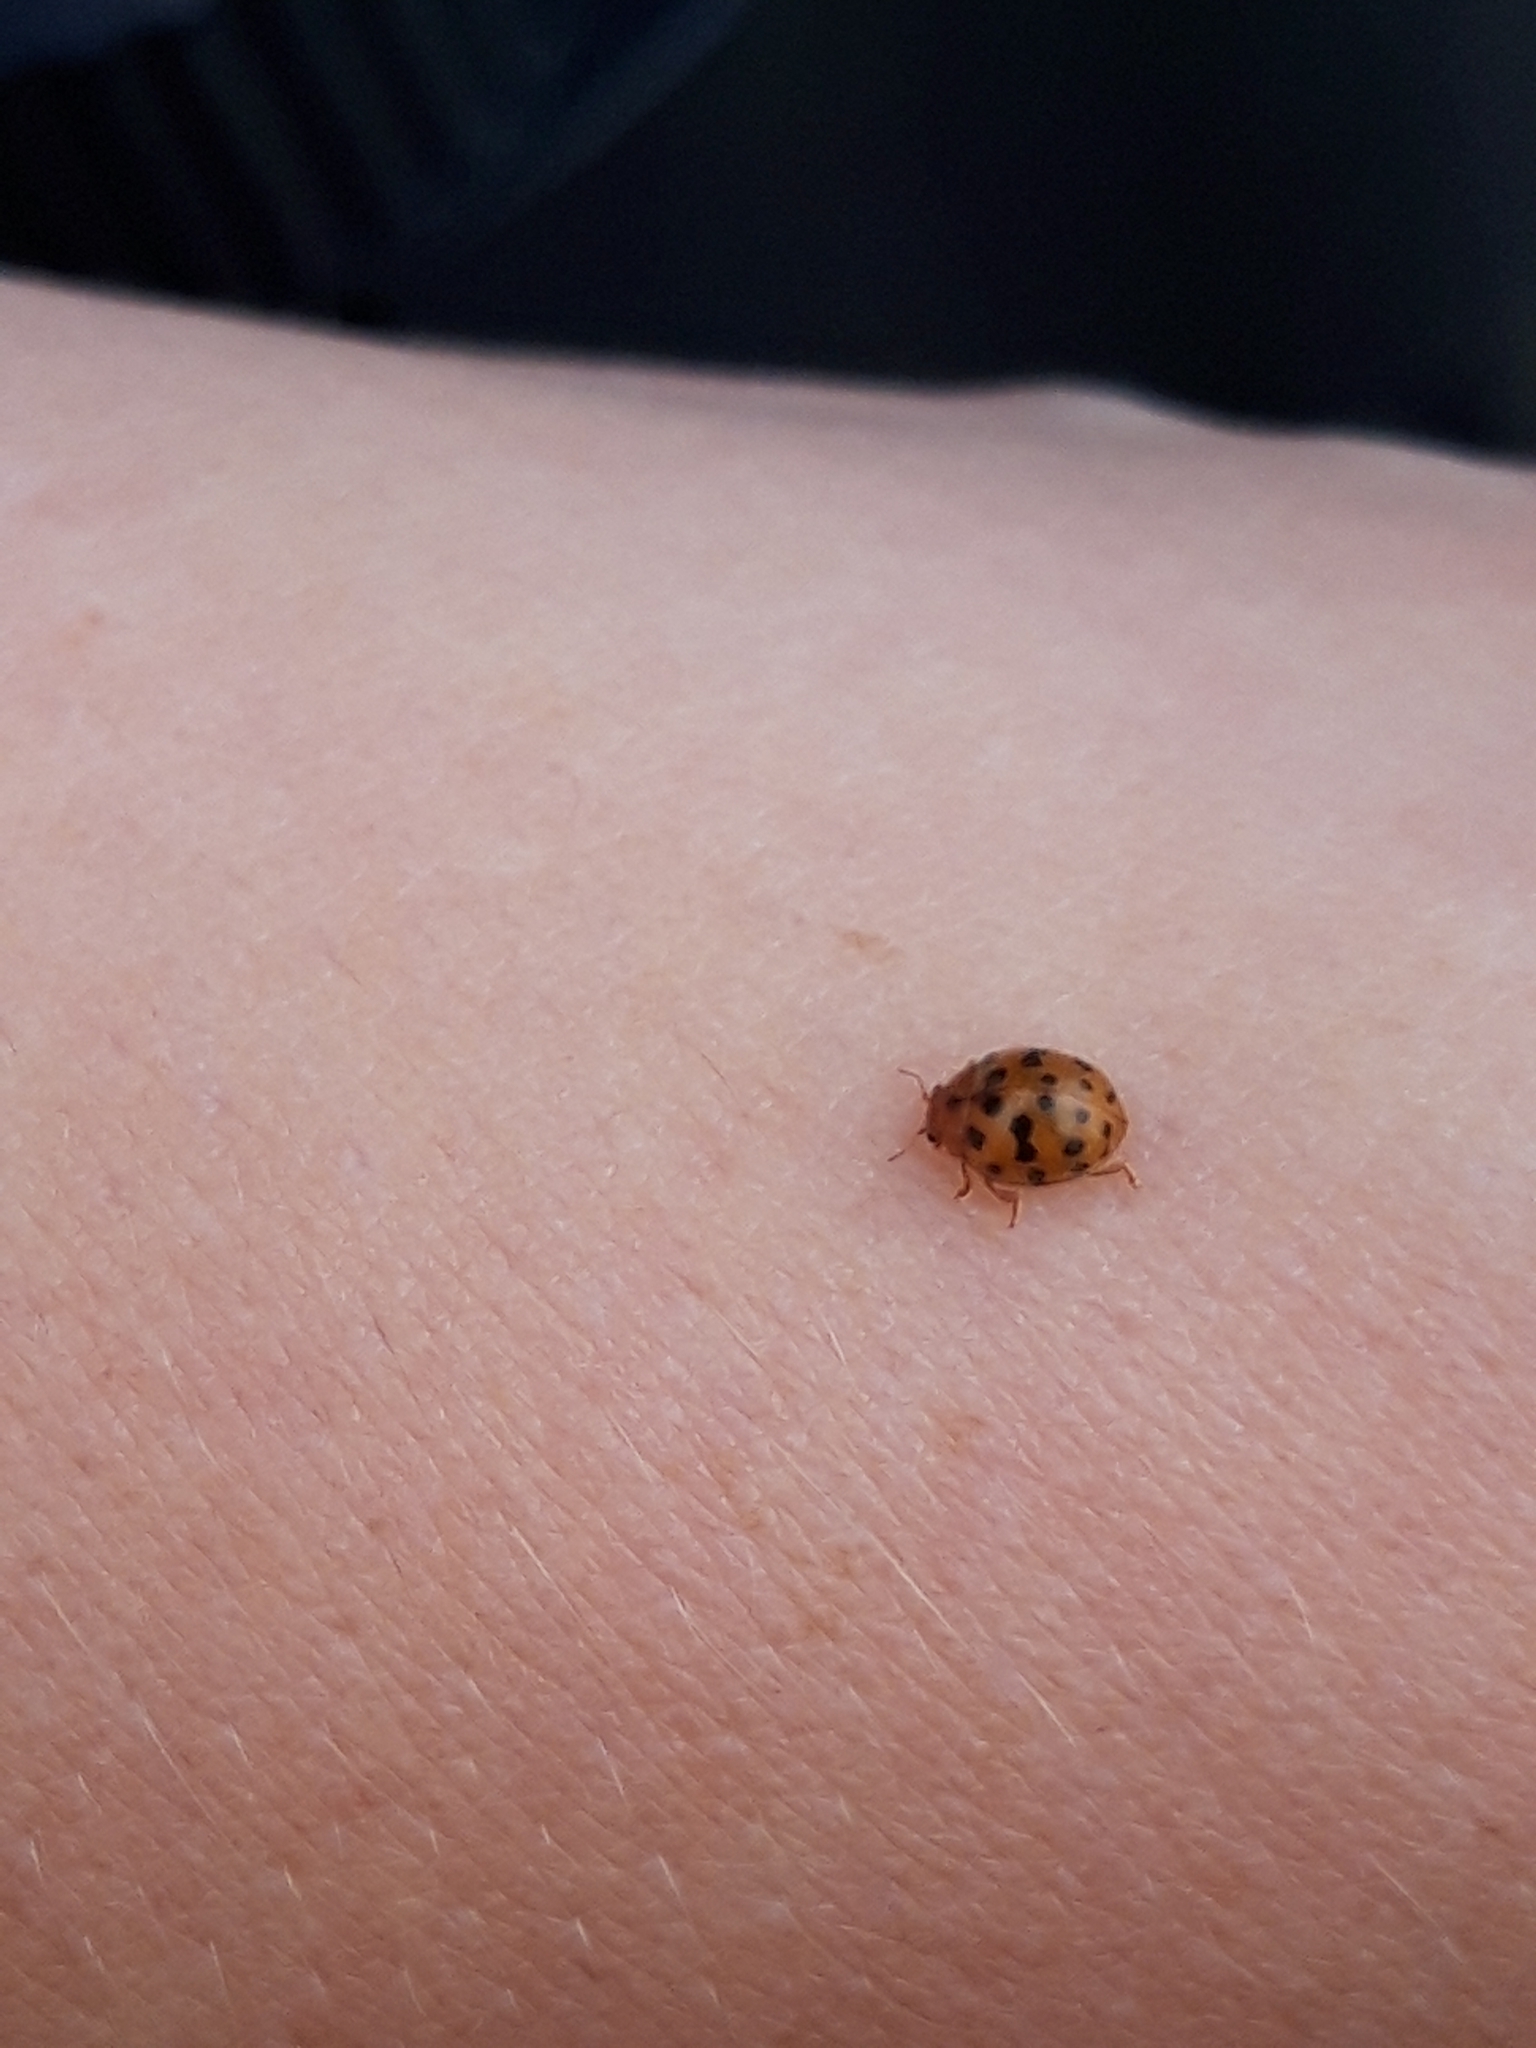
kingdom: Animalia
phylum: Arthropoda
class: Insecta
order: Coleoptera
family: Coccinellidae
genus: Subcoccinella
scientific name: Subcoccinella vigintiquatuorpunctata
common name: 24-spot ladybird
